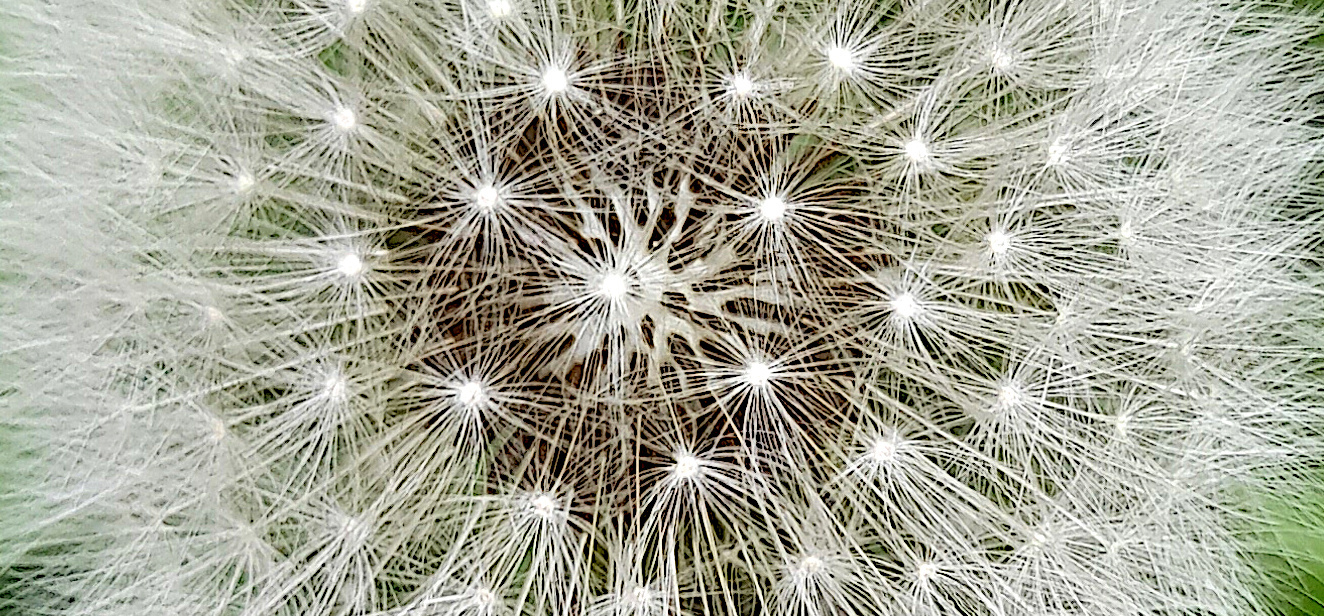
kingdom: Plantae
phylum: Tracheophyta
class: Magnoliopsida
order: Asterales
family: Asteraceae
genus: Taraxacum
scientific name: Taraxacum officinale
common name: Common dandelion
